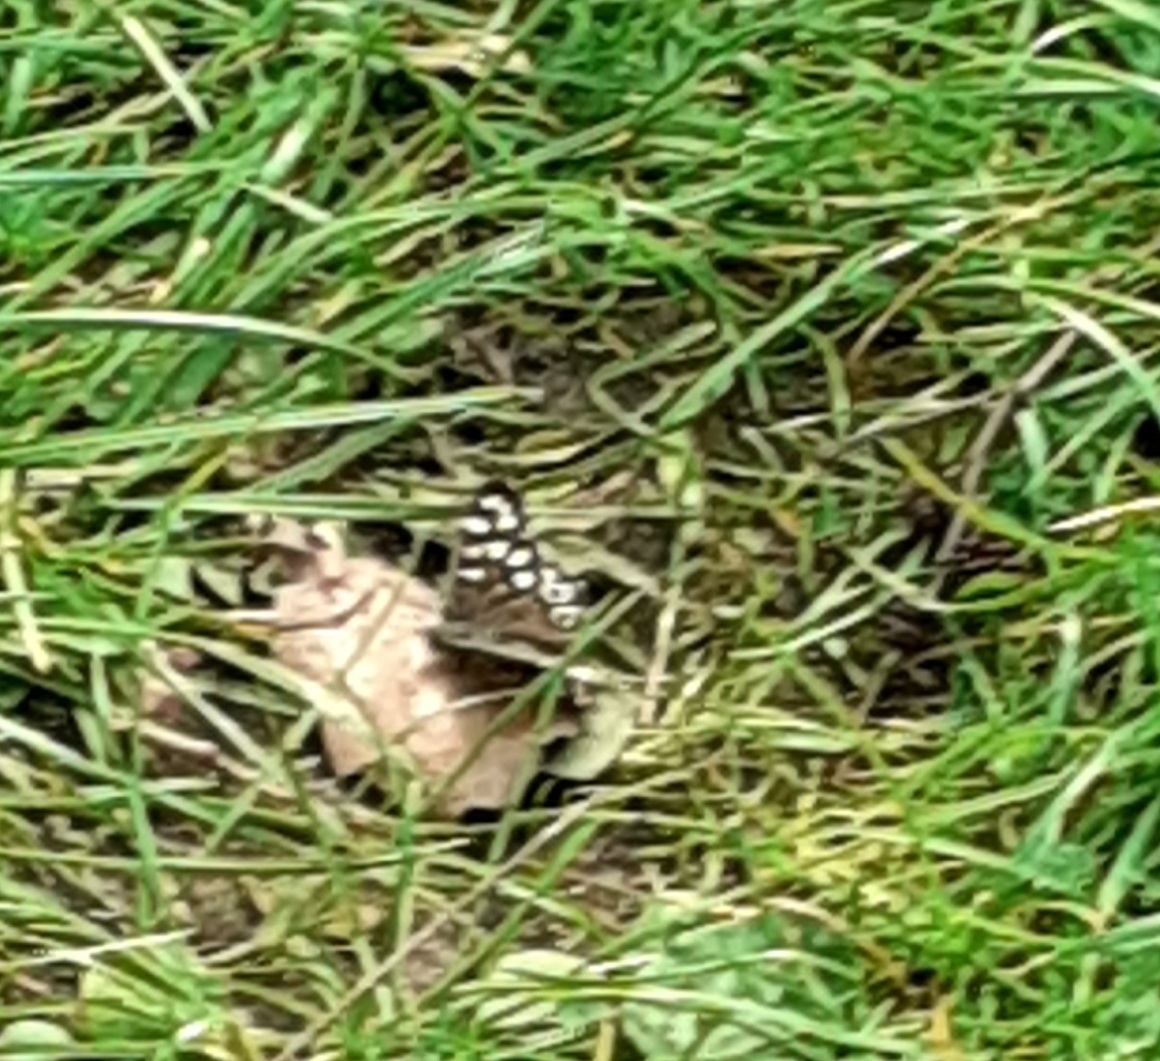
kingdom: Animalia
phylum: Arthropoda
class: Insecta
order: Lepidoptera
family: Nymphalidae
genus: Pararge
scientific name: Pararge aegeria
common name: Speckled wood
